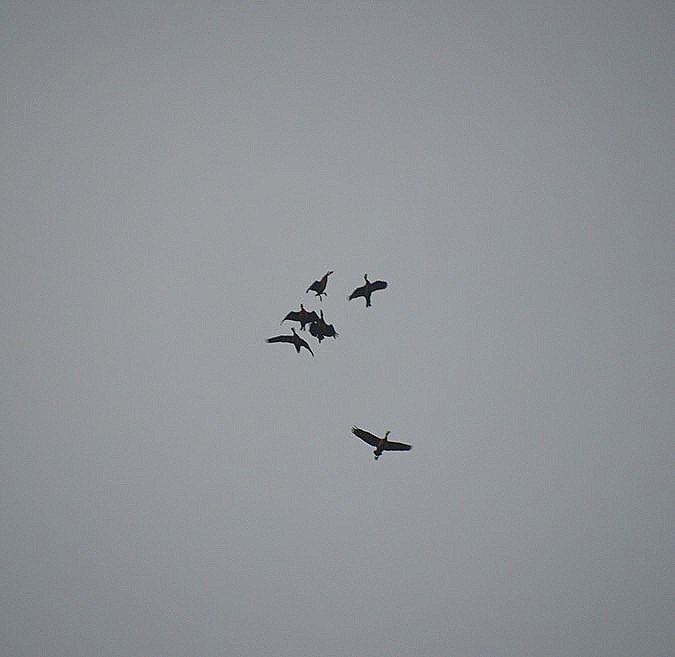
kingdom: Animalia
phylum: Chordata
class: Aves
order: Anseriformes
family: Anatidae
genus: Dendrocygna
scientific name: Dendrocygna viduata
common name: White-faced whistling duck
